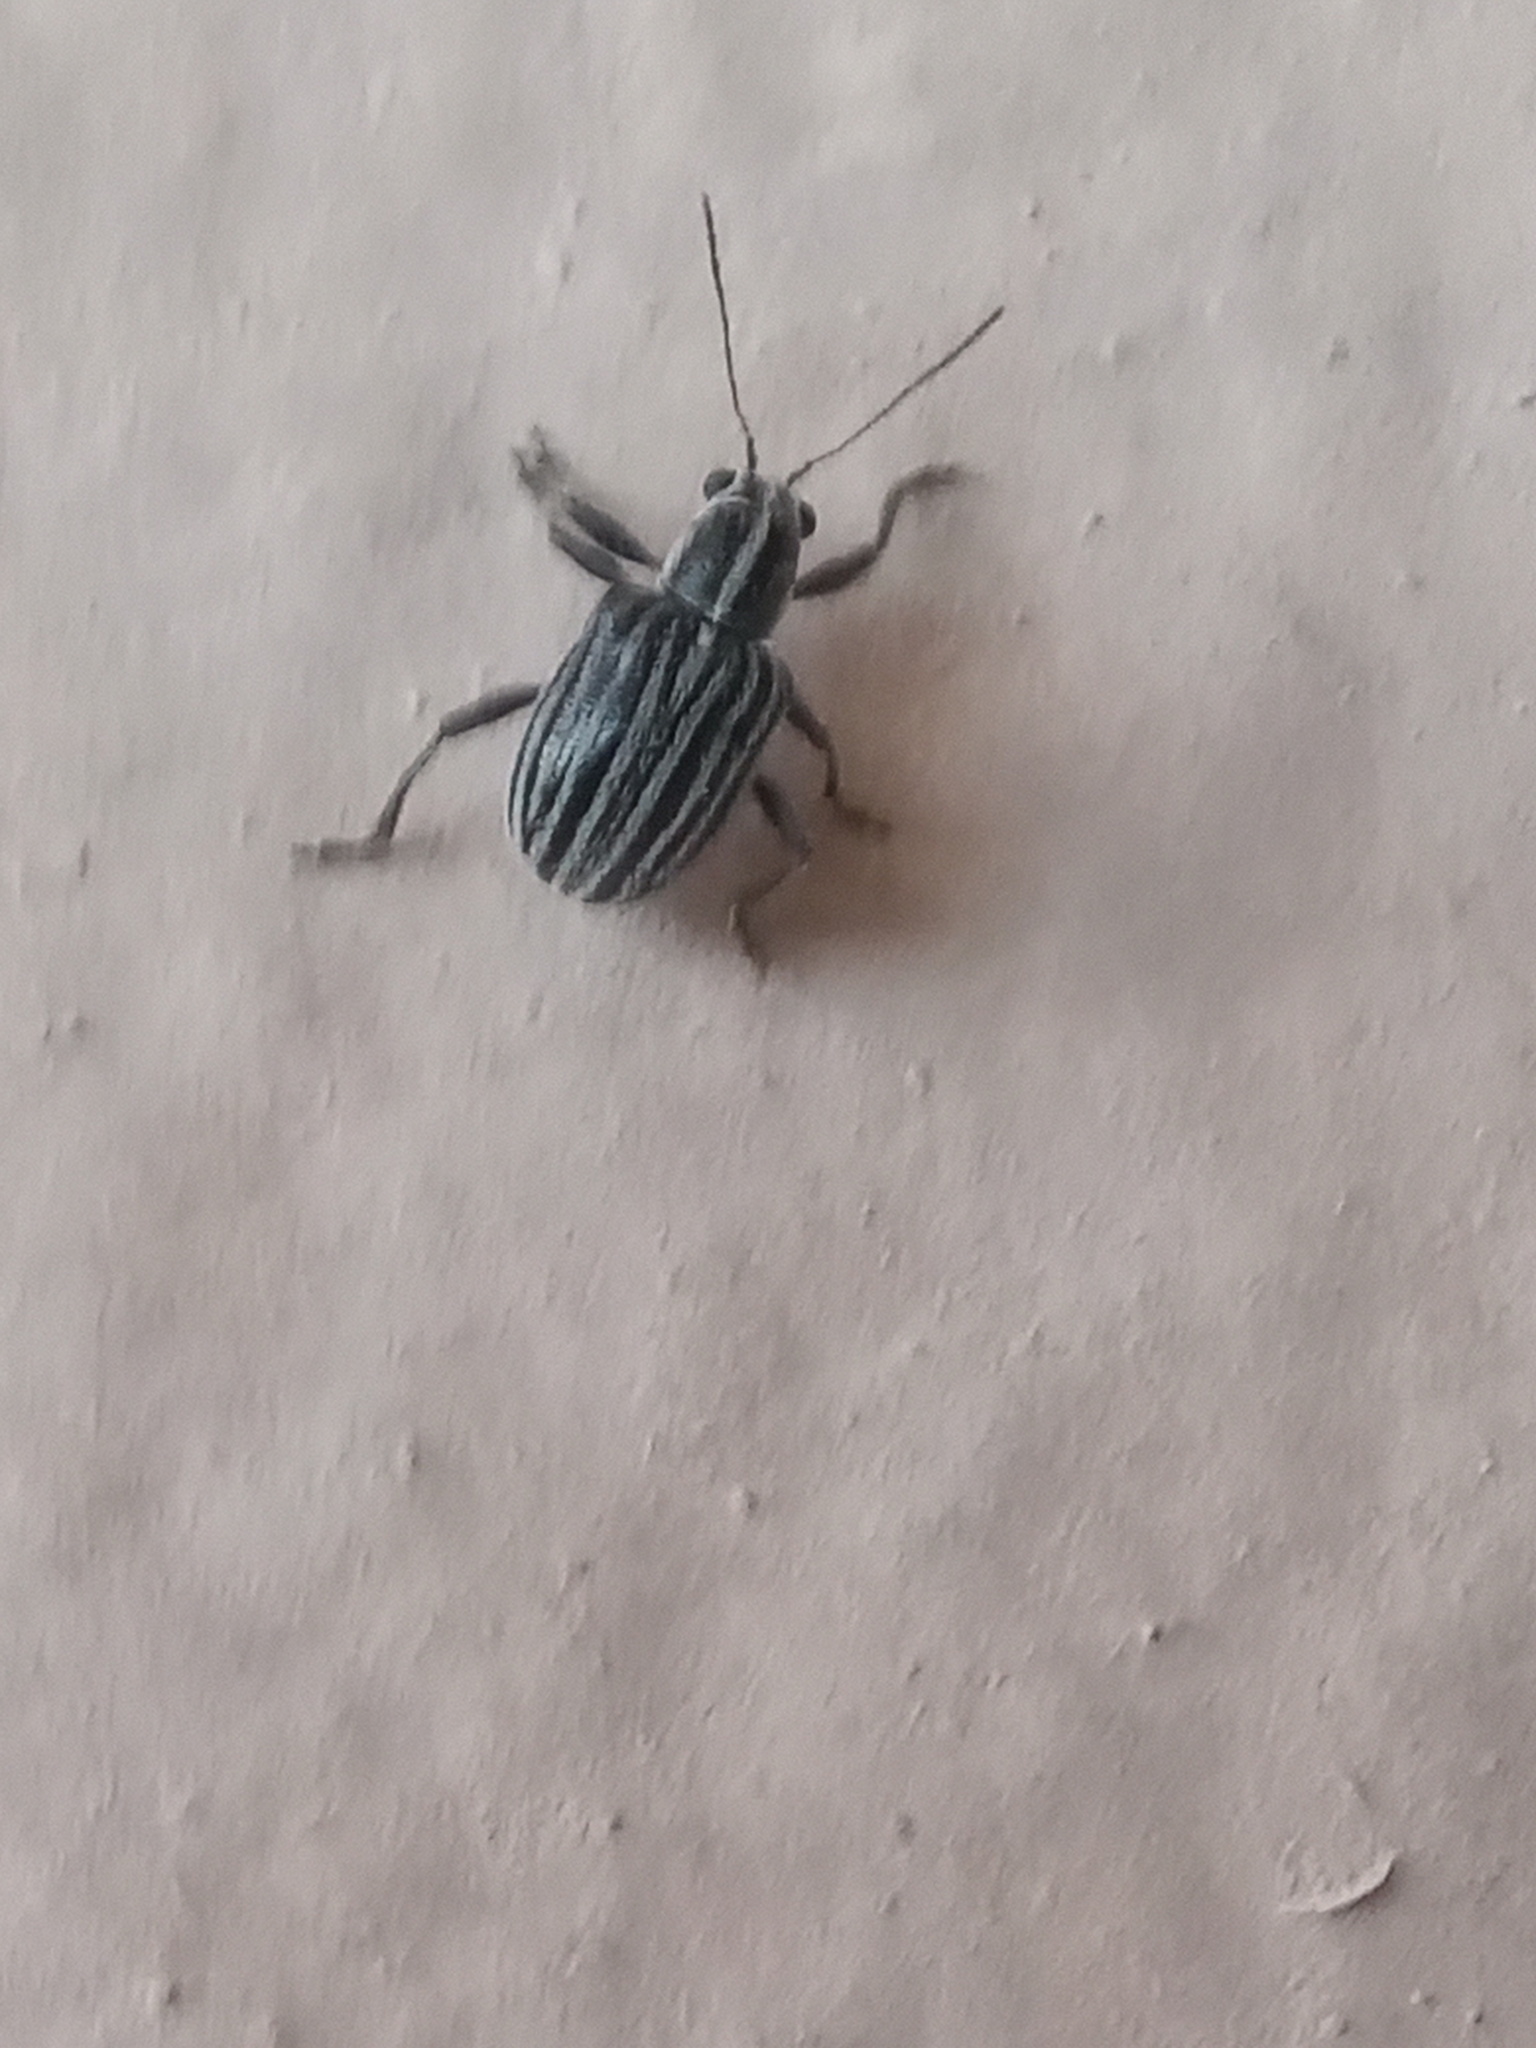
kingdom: Animalia
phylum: Arthropoda
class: Insecta
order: Coleoptera
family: Chrysomelidae
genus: Neofidia
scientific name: Neofidia
